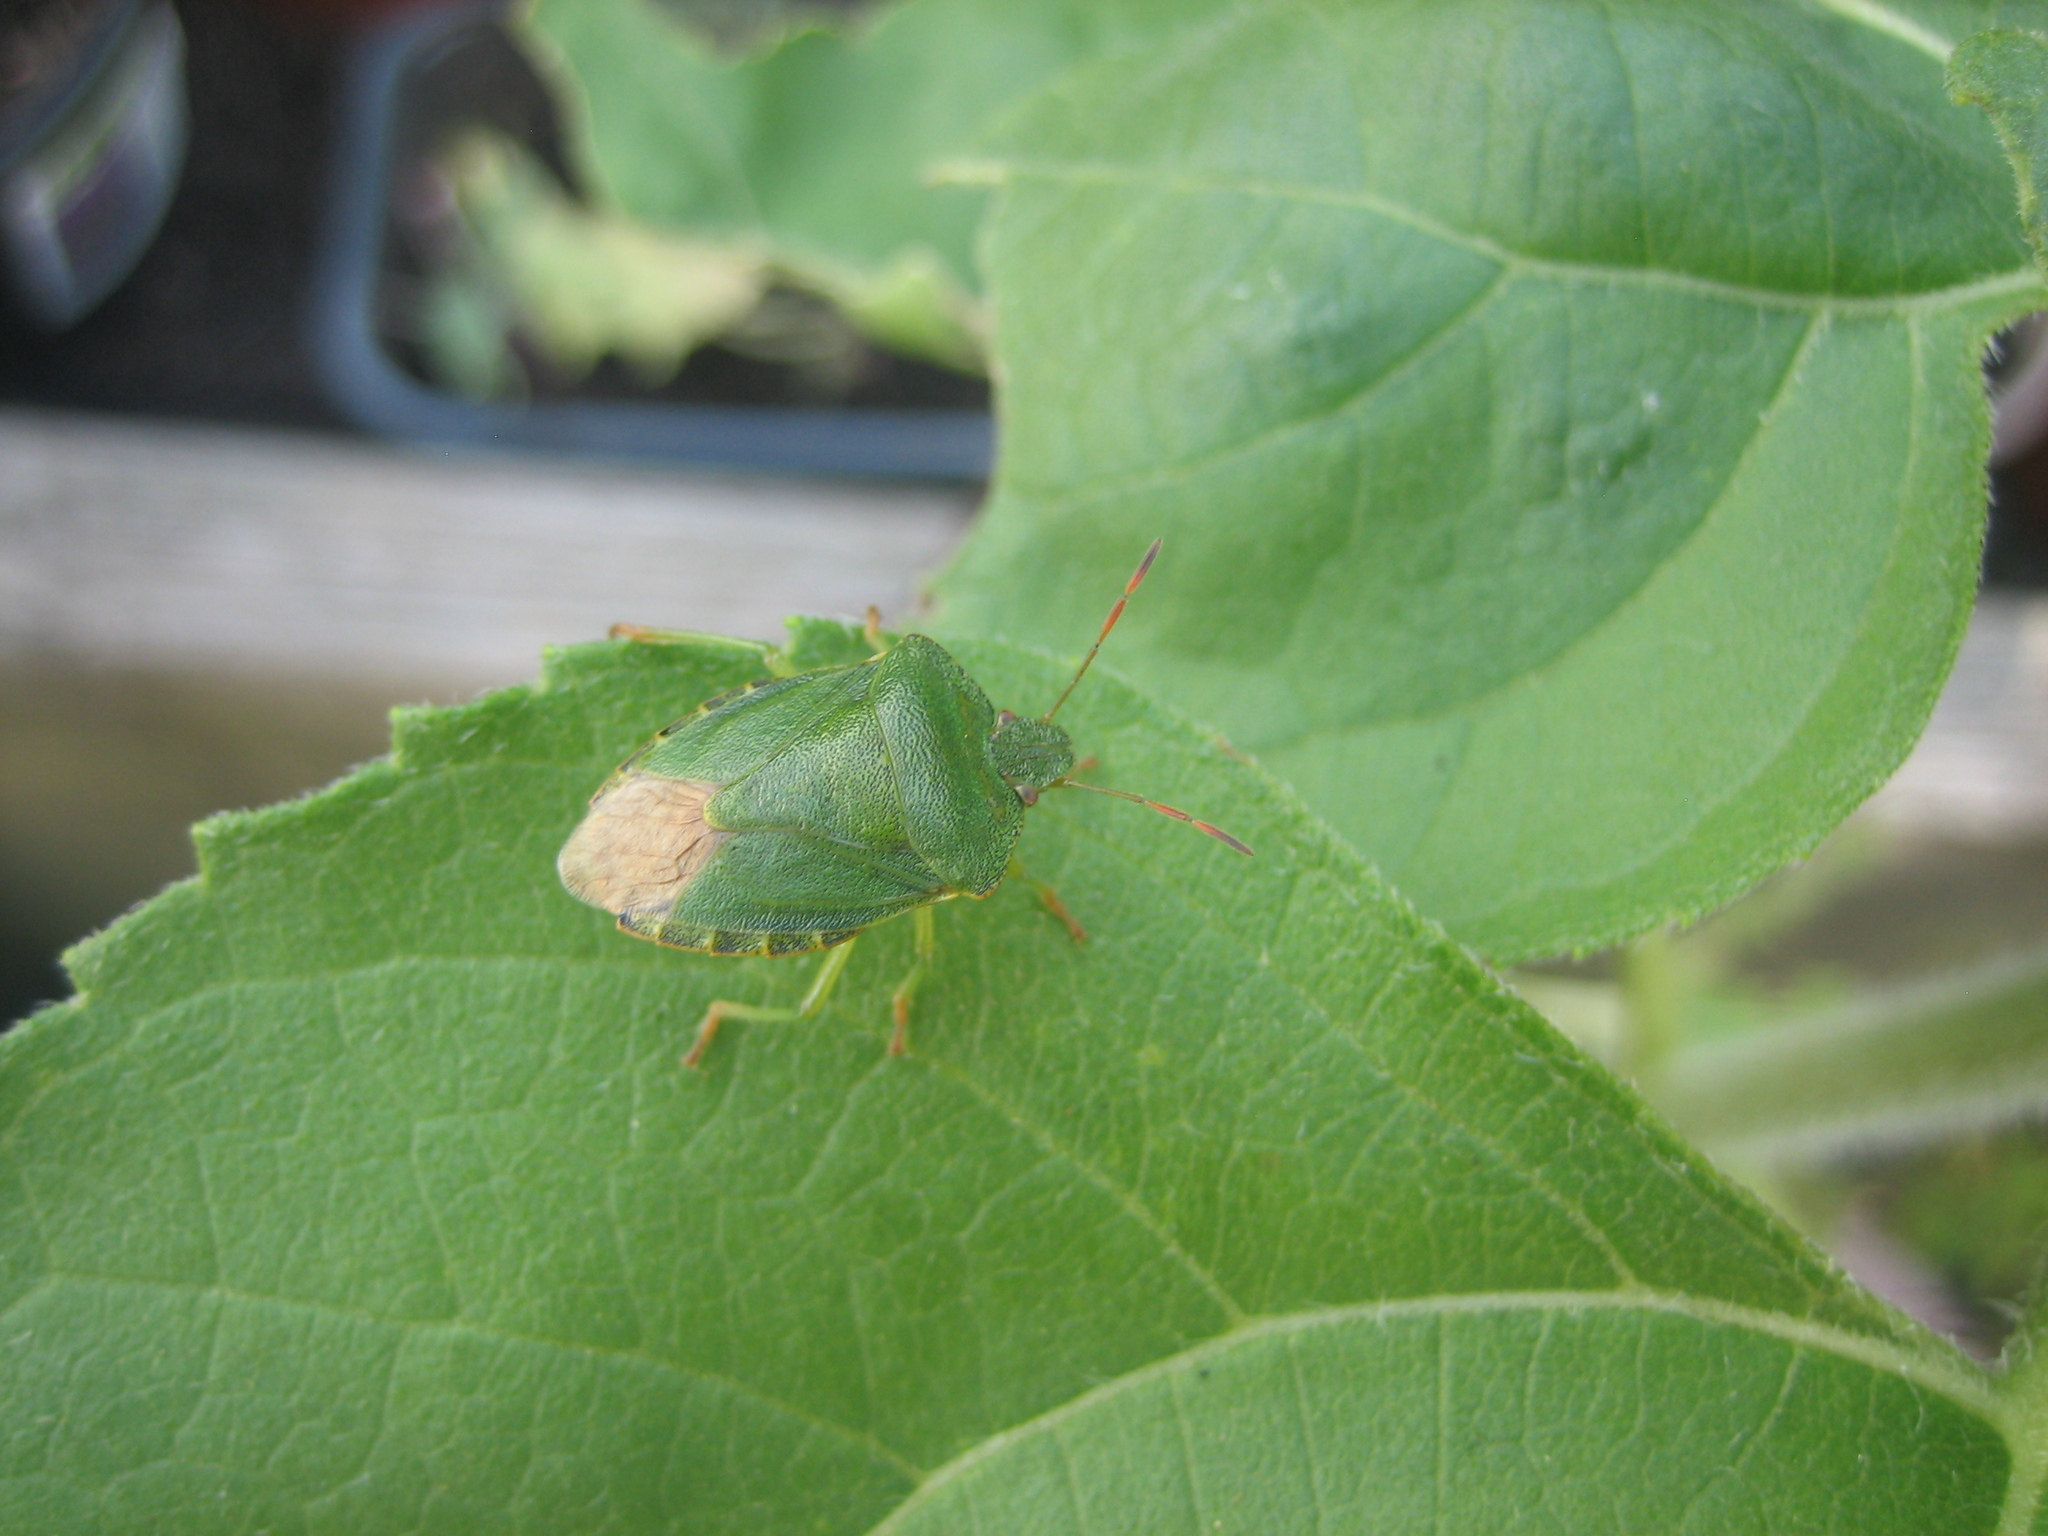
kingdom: Animalia
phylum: Arthropoda
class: Insecta
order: Hemiptera
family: Pentatomidae
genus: Palomena
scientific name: Palomena prasina
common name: Green shieldbug
